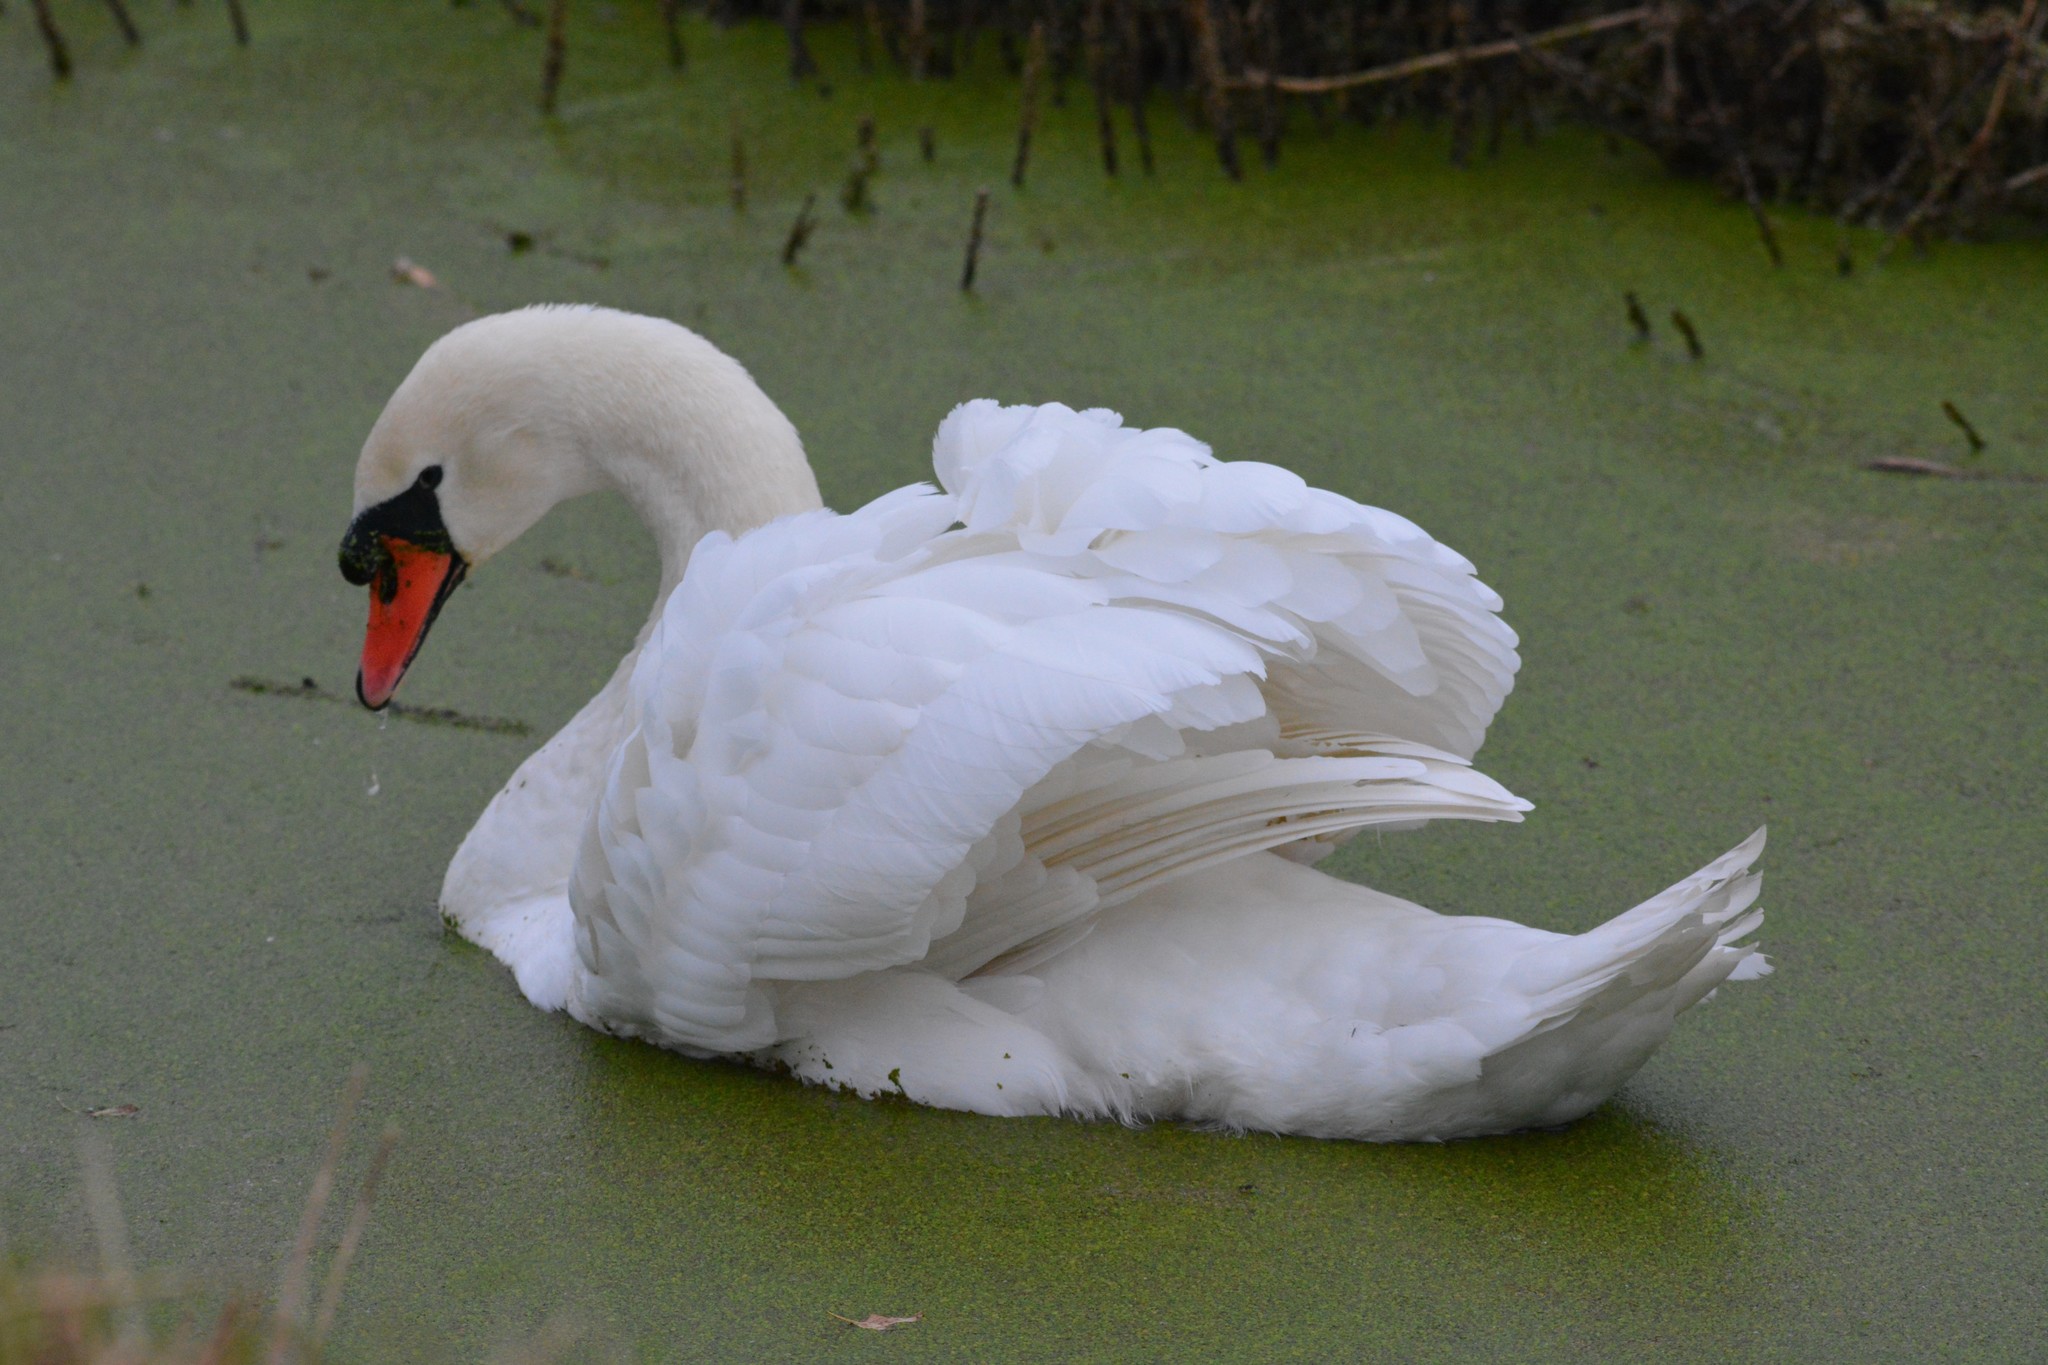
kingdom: Animalia
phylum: Chordata
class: Aves
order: Anseriformes
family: Anatidae
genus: Cygnus
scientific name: Cygnus olor
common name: Mute swan
